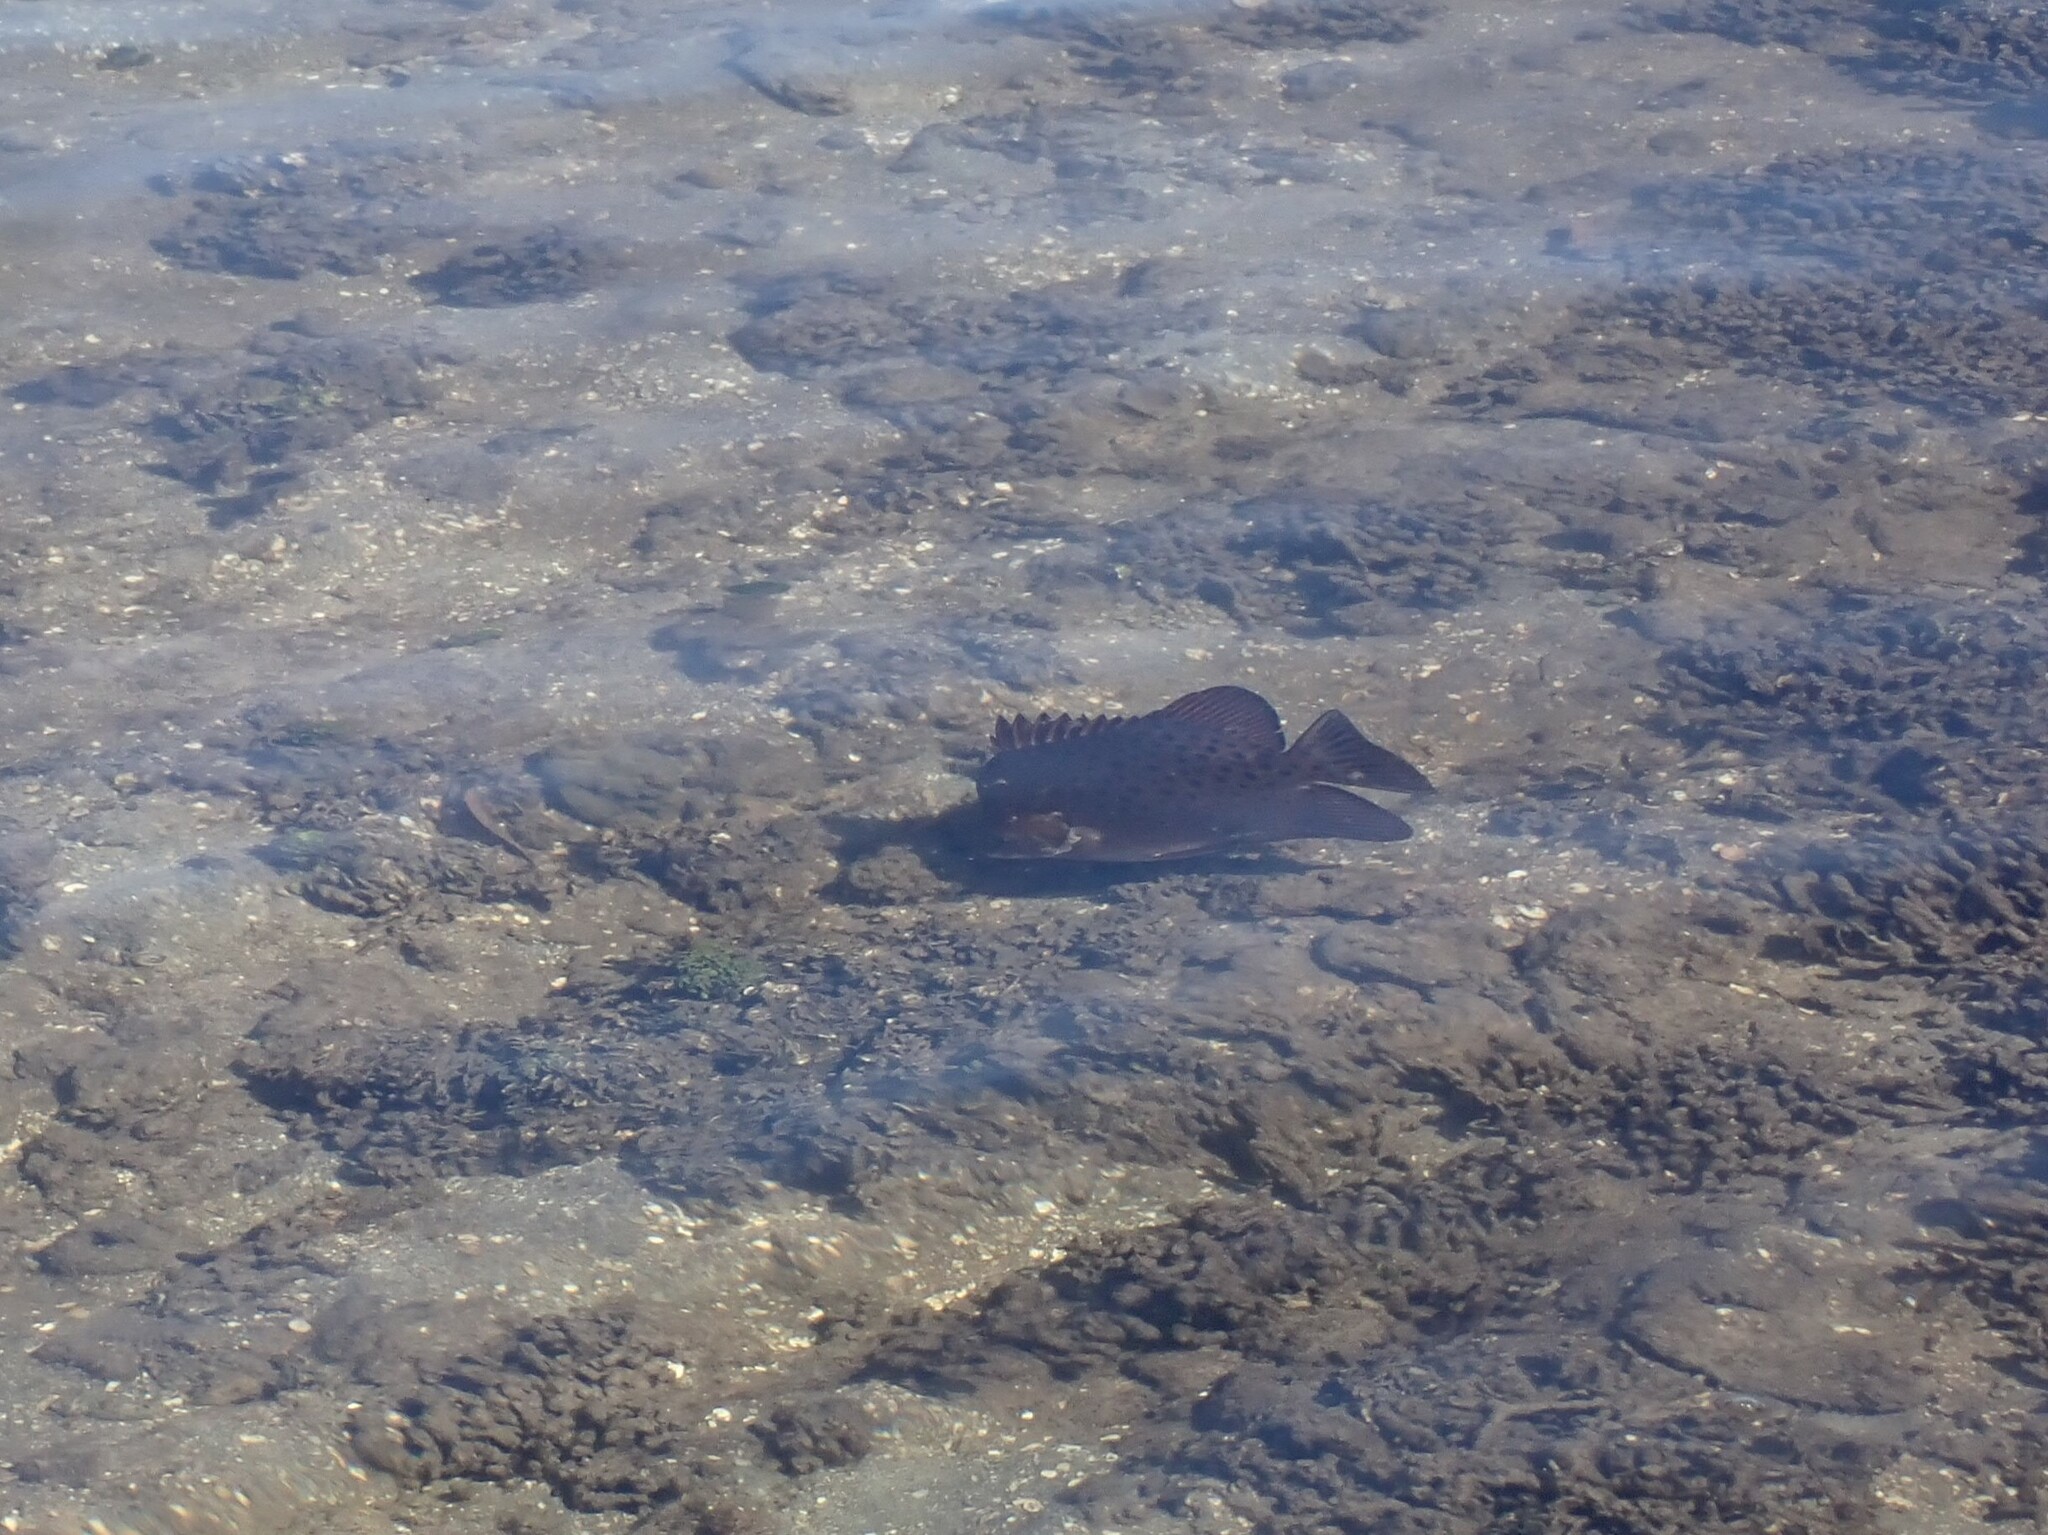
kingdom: Animalia
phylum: Chordata
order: Perciformes
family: Scatophagidae
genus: Scatophagus
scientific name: Scatophagus argus
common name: Spotted scat
